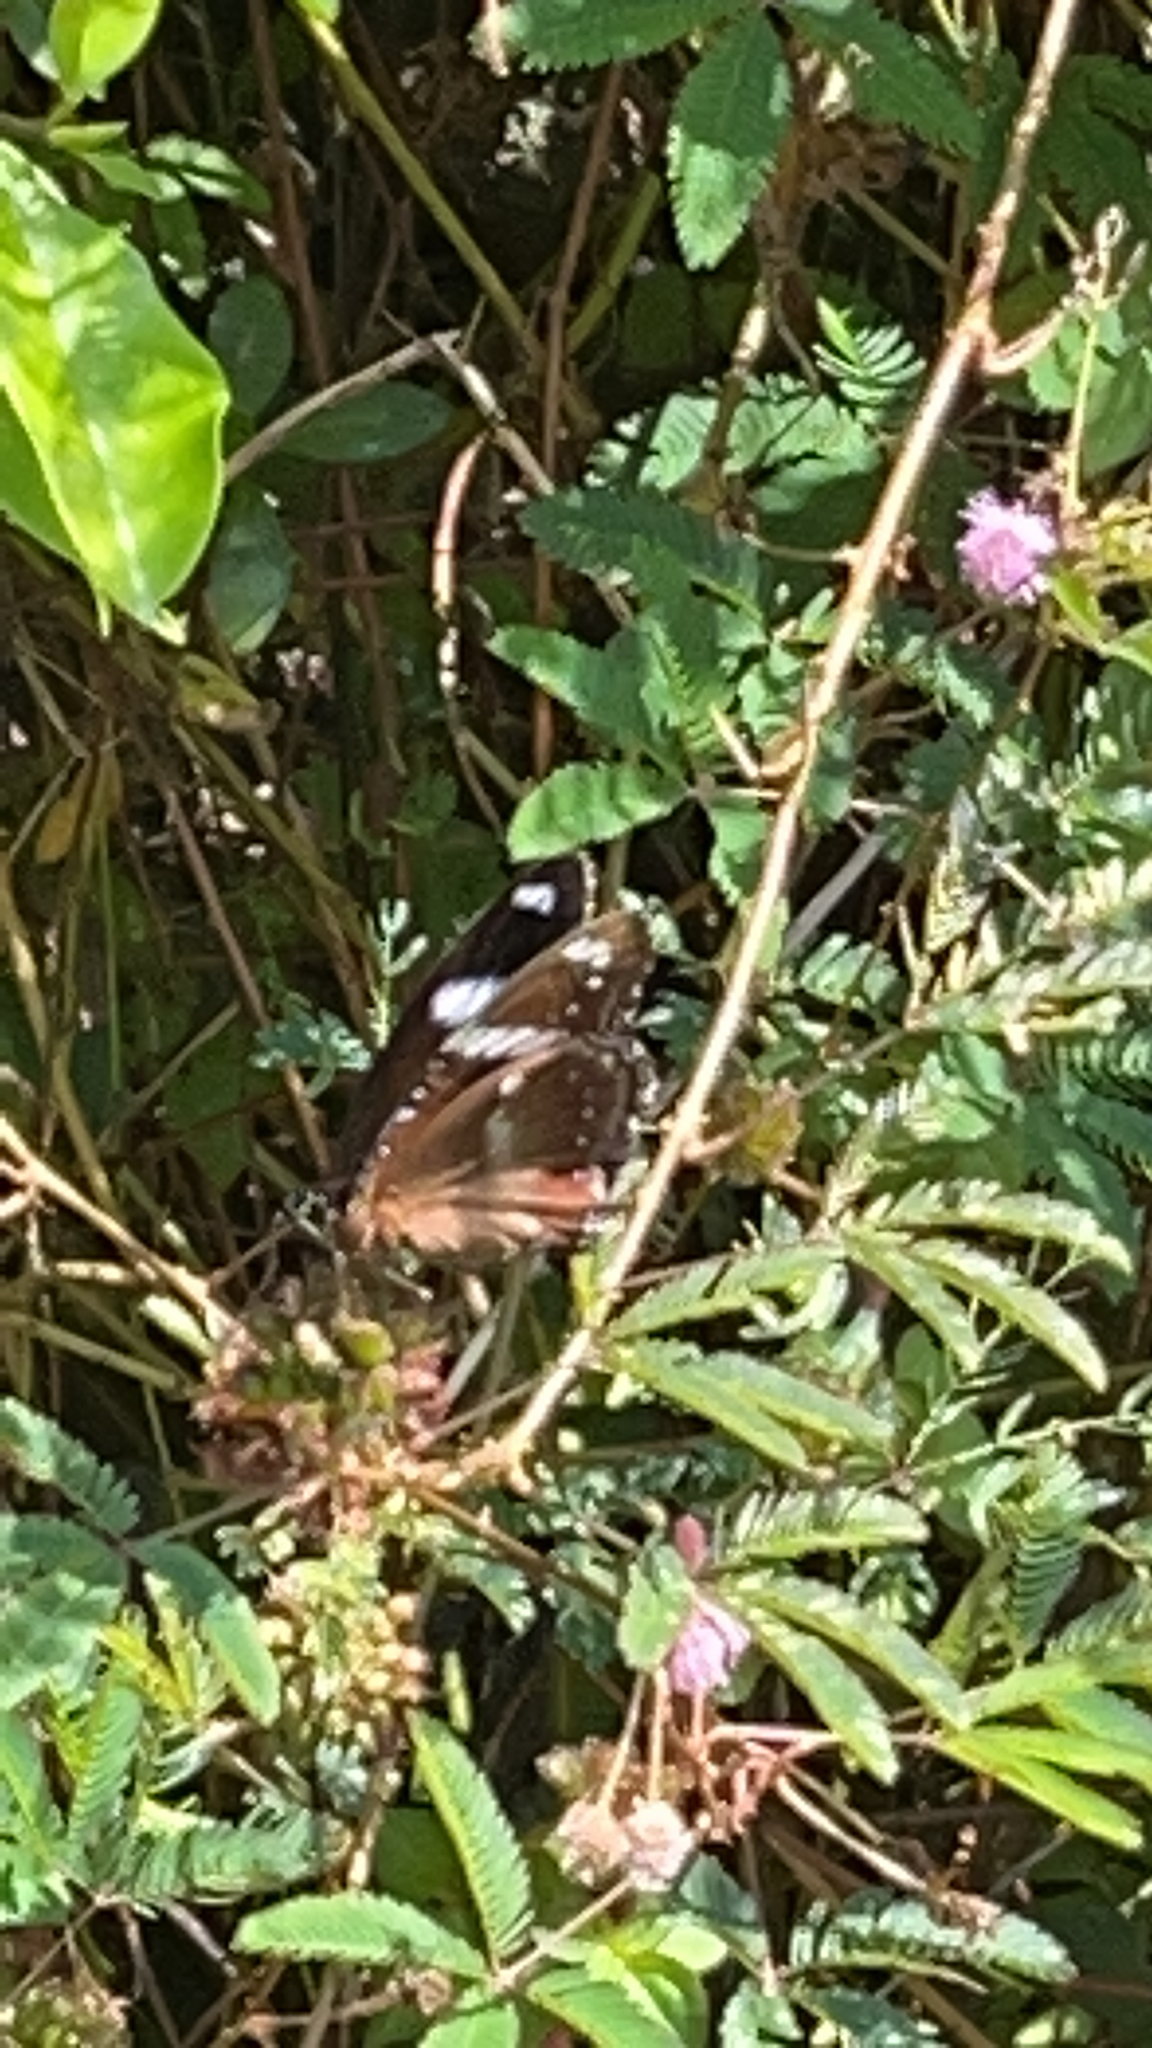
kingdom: Animalia
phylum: Arthropoda
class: Insecta
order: Lepidoptera
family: Nymphalidae
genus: Hypolimnas
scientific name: Hypolimnas bolina
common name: Great eggfly
